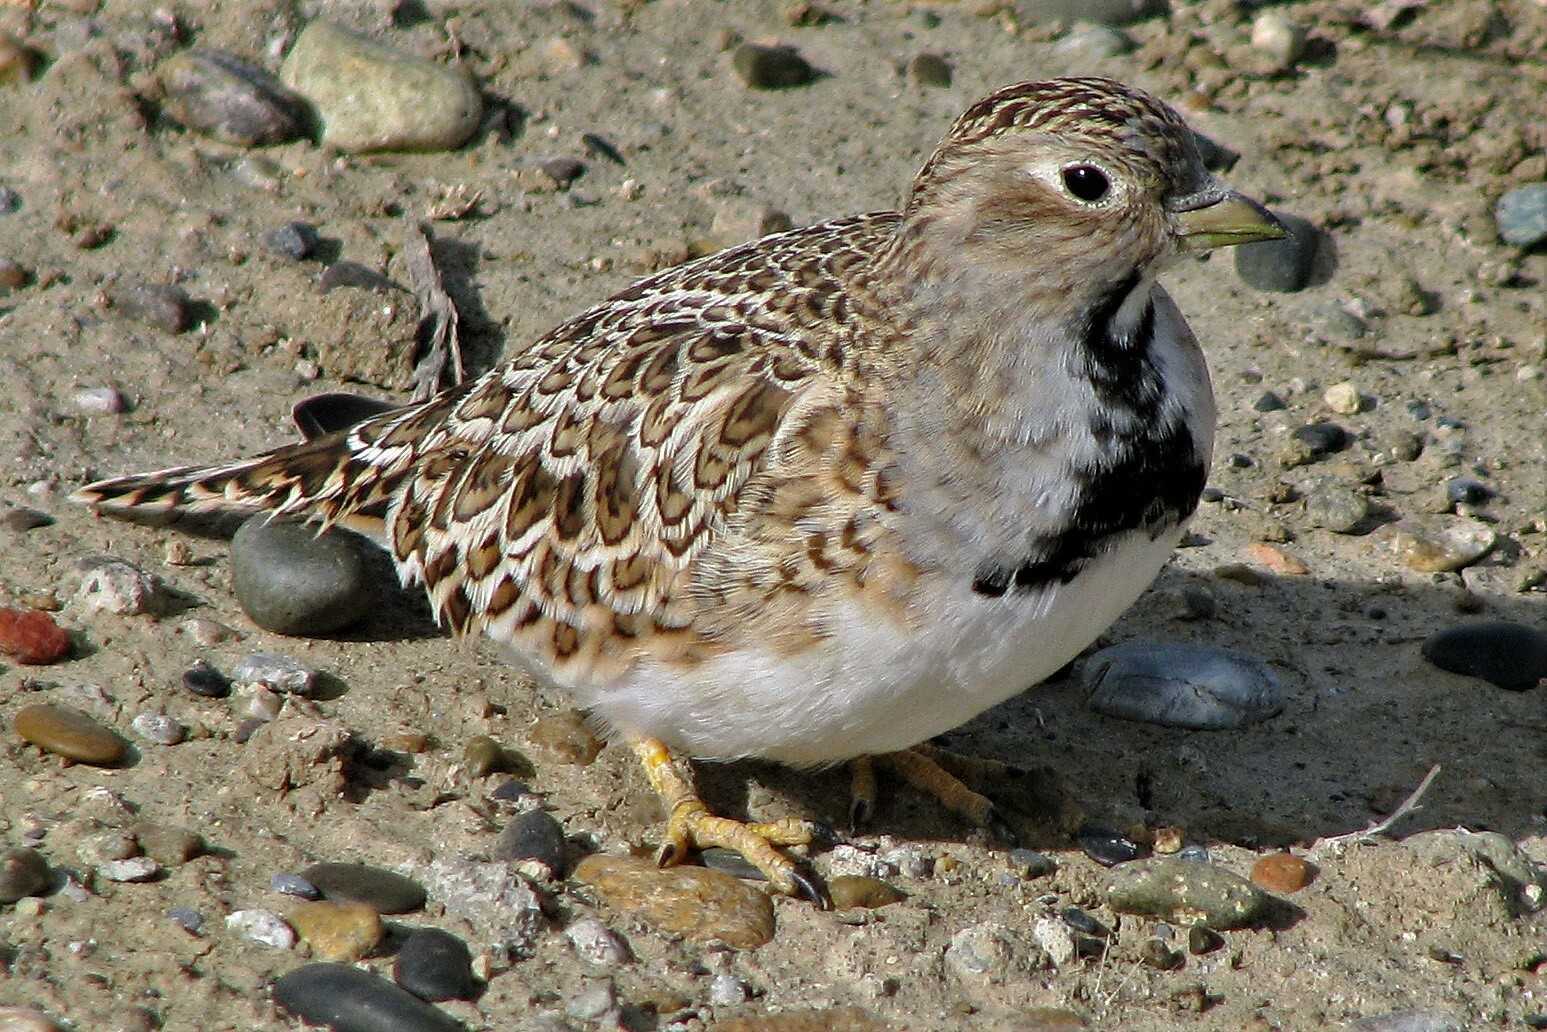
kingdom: Animalia
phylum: Chordata
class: Aves
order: Charadriiformes
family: Thinocoridae
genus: Thinocorus
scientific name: Thinocorus rumicivorus
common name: Least seedsnipe
